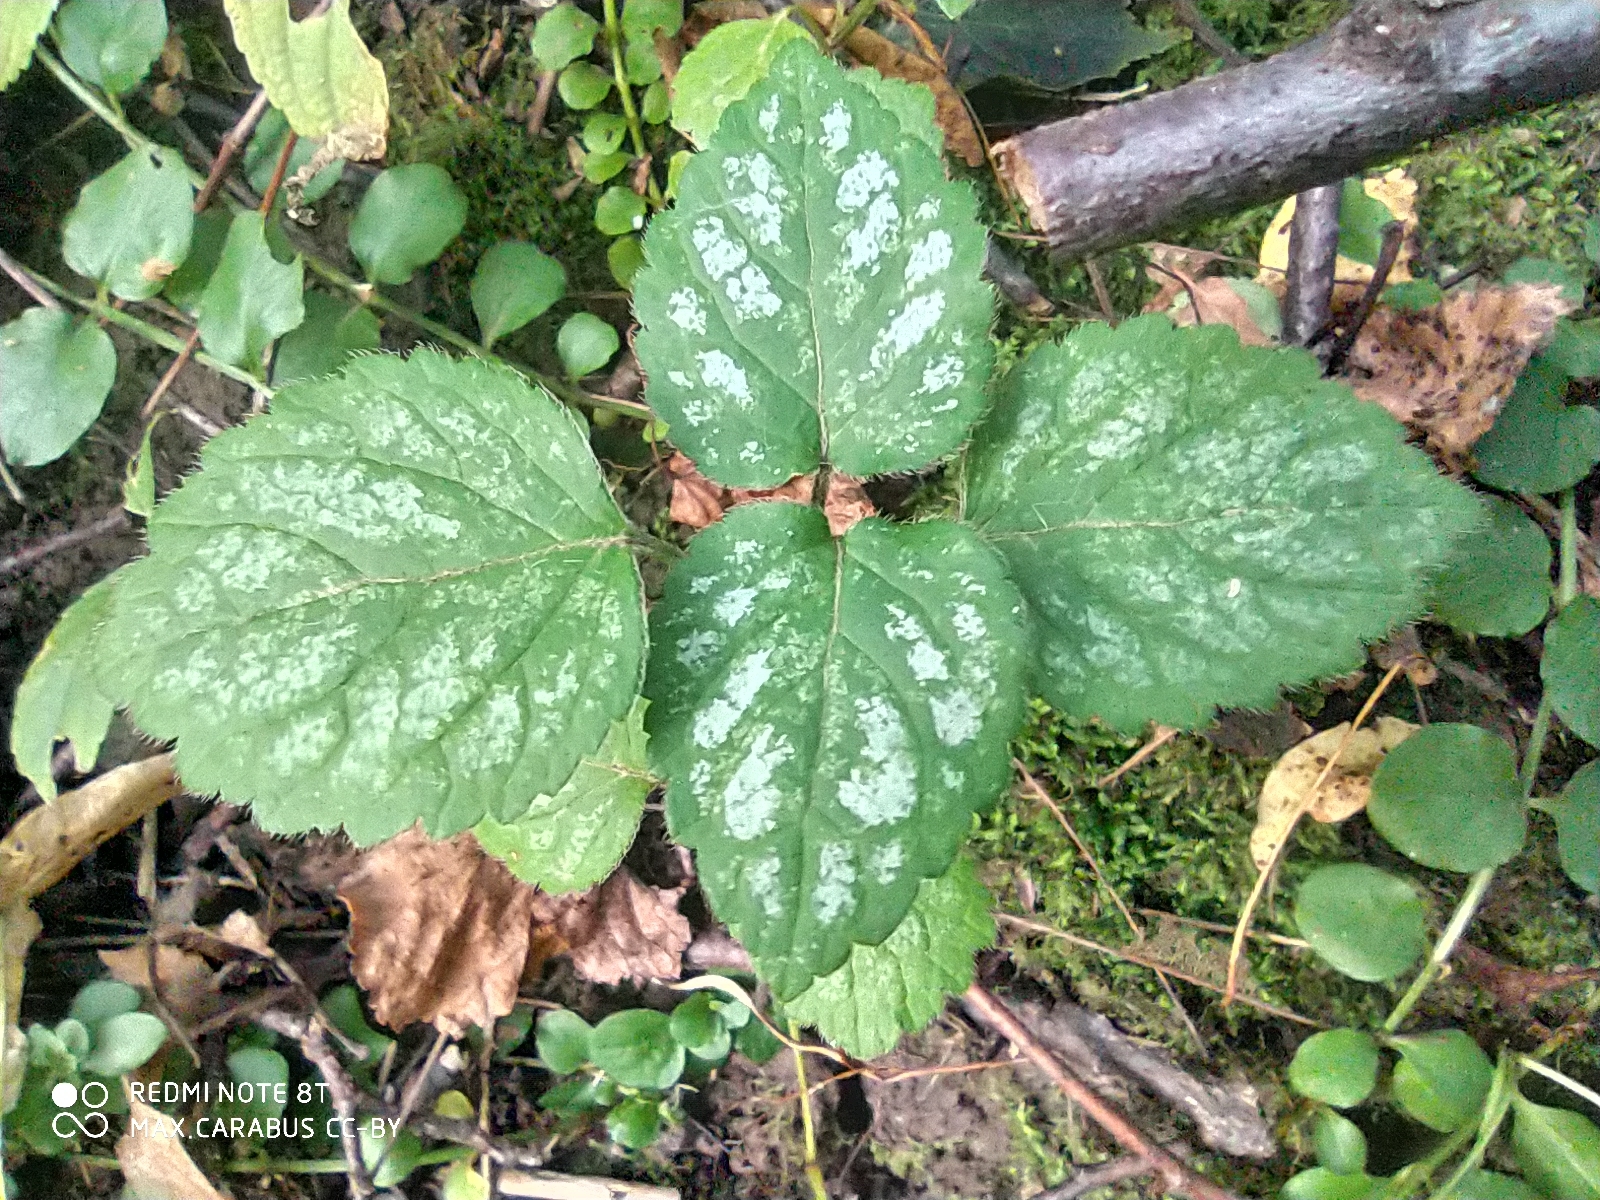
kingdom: Plantae
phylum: Tracheophyta
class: Magnoliopsida
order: Lamiales
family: Lamiaceae
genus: Lamium
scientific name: Lamium galeobdolon
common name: Yellow archangel
